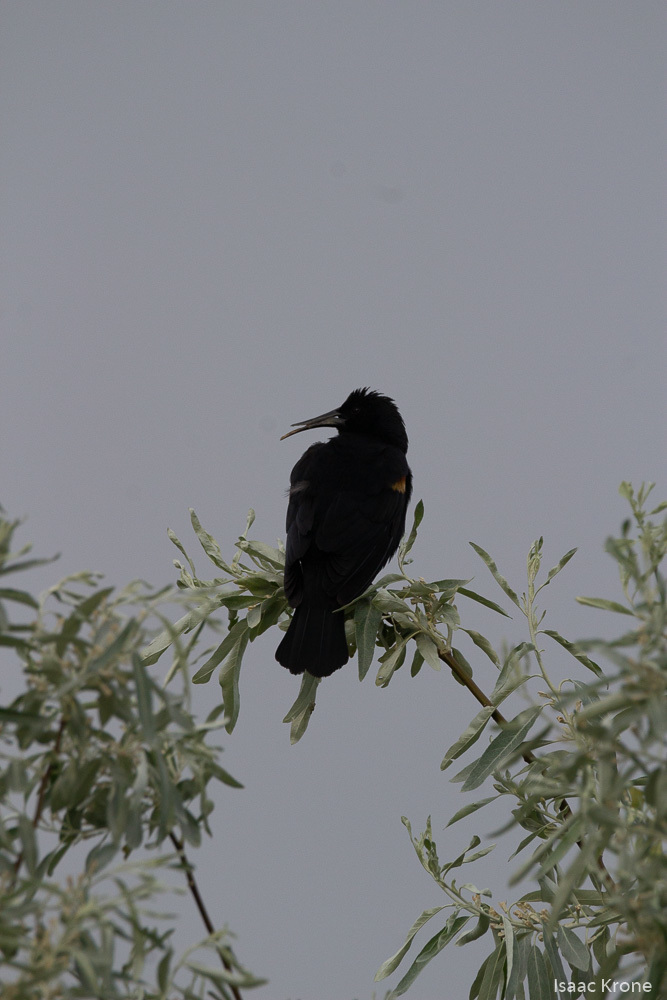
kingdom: Animalia
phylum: Chordata
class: Aves
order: Passeriformes
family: Icteridae
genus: Agelaius
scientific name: Agelaius phoeniceus
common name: Red-winged blackbird
